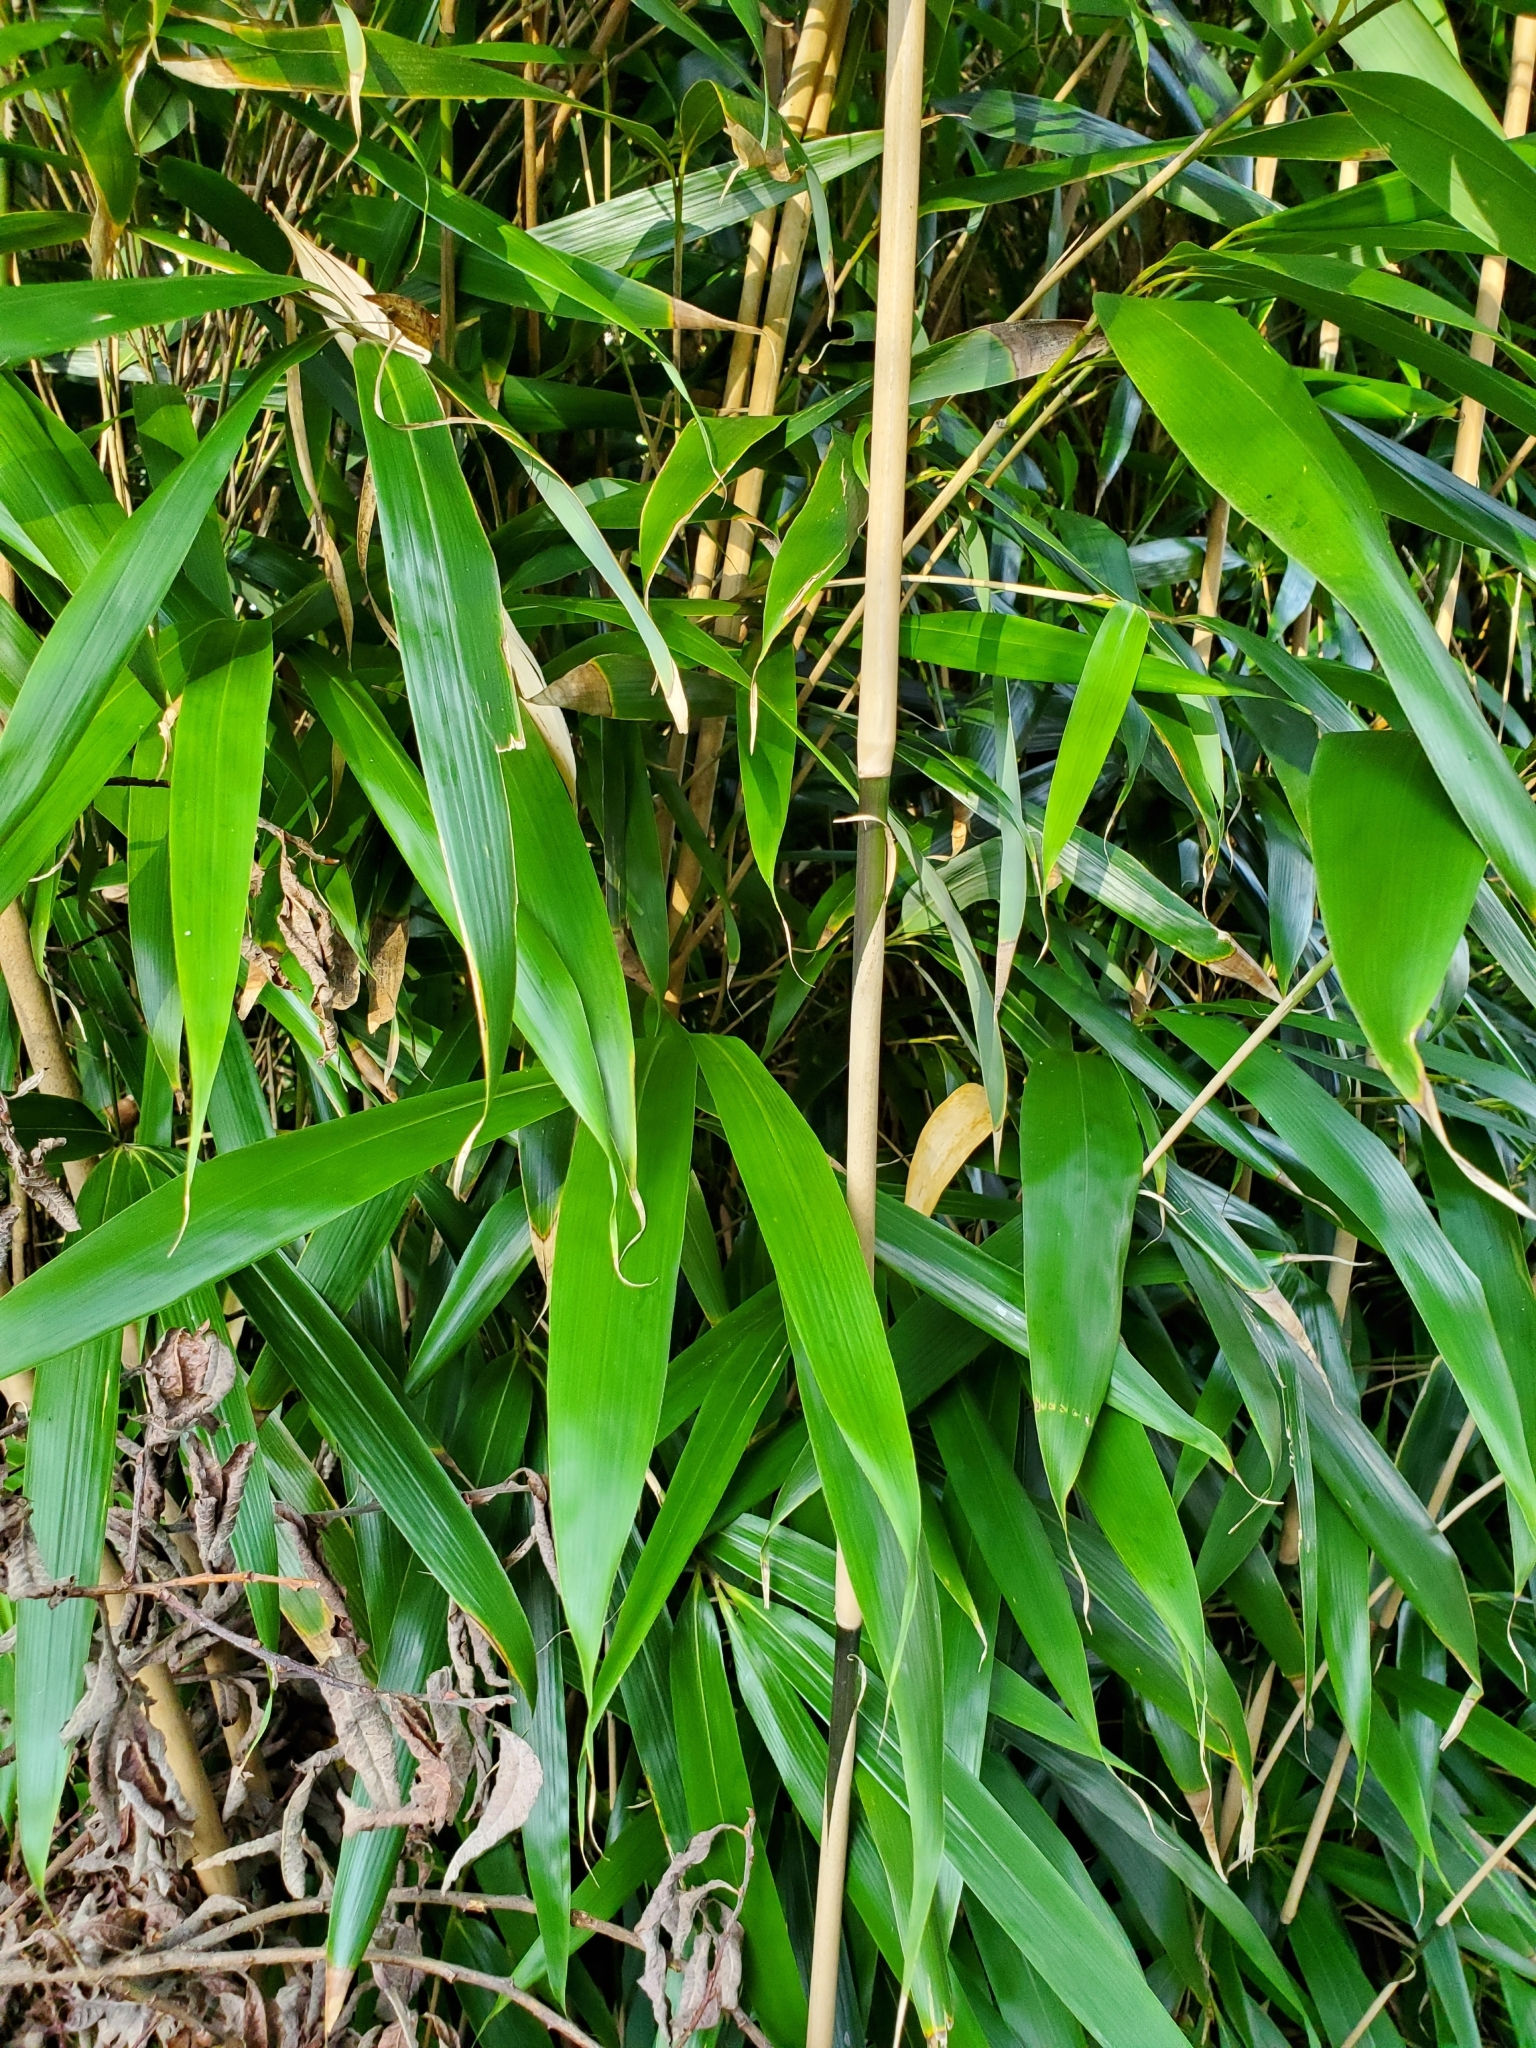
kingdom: Plantae
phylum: Tracheophyta
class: Liliopsida
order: Poales
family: Poaceae
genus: Pseudosasa
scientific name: Pseudosasa japonica
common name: Arrow bamboo
